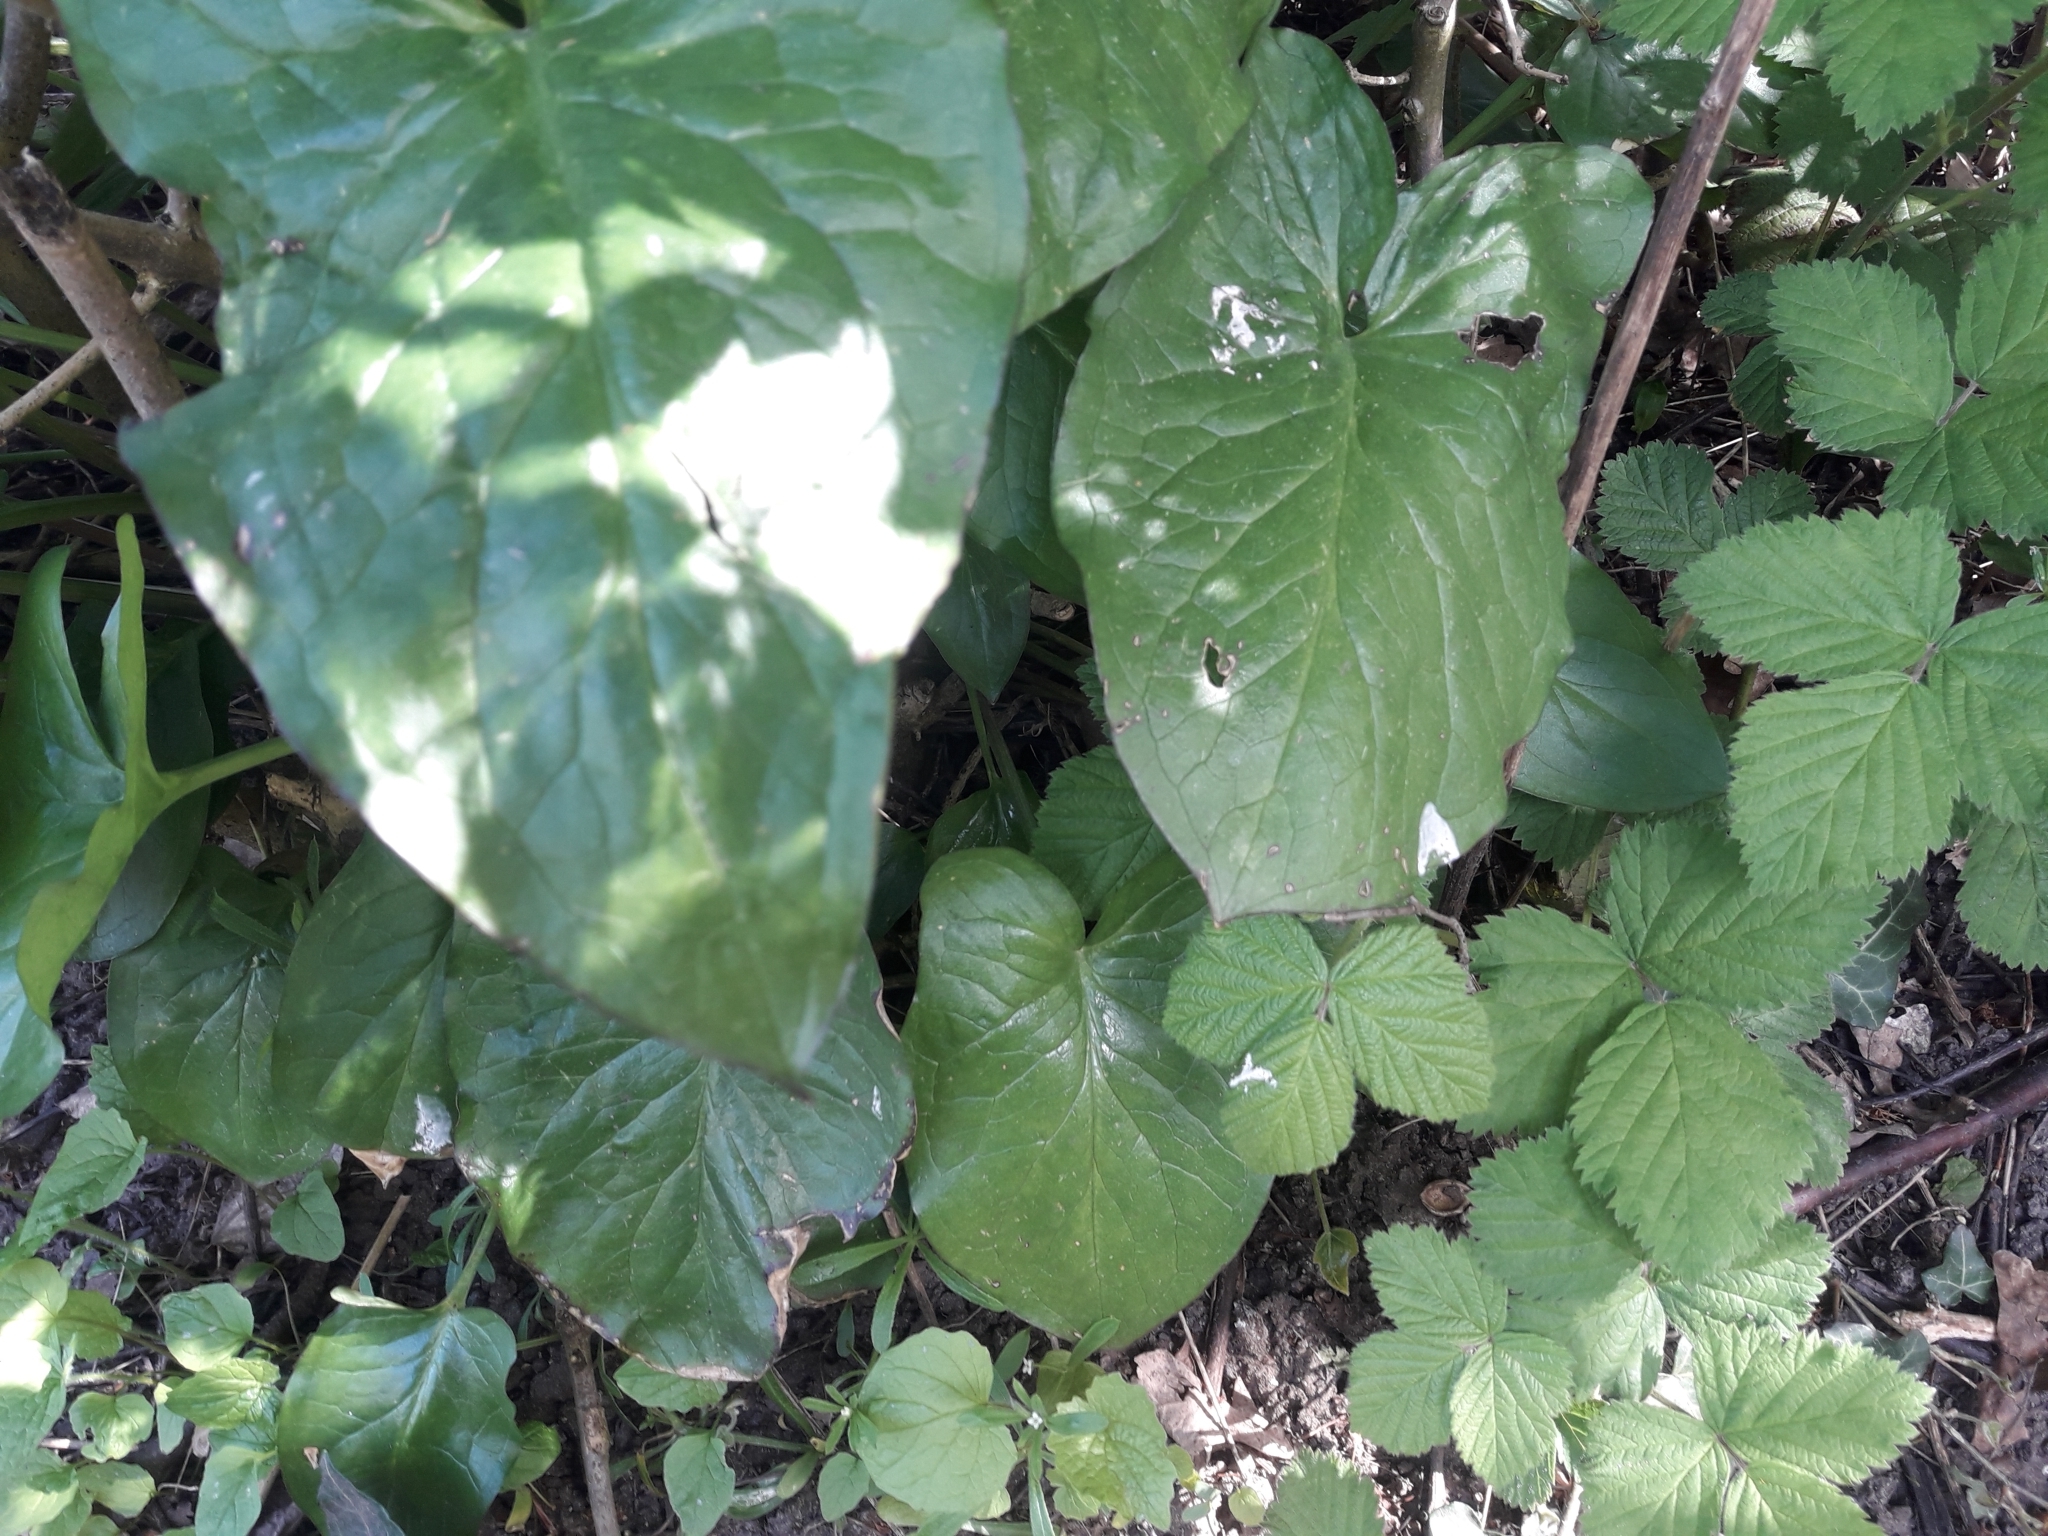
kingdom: Plantae
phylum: Tracheophyta
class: Liliopsida
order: Alismatales
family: Araceae
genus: Arum
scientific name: Arum maculatum
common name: Lords-and-ladies
